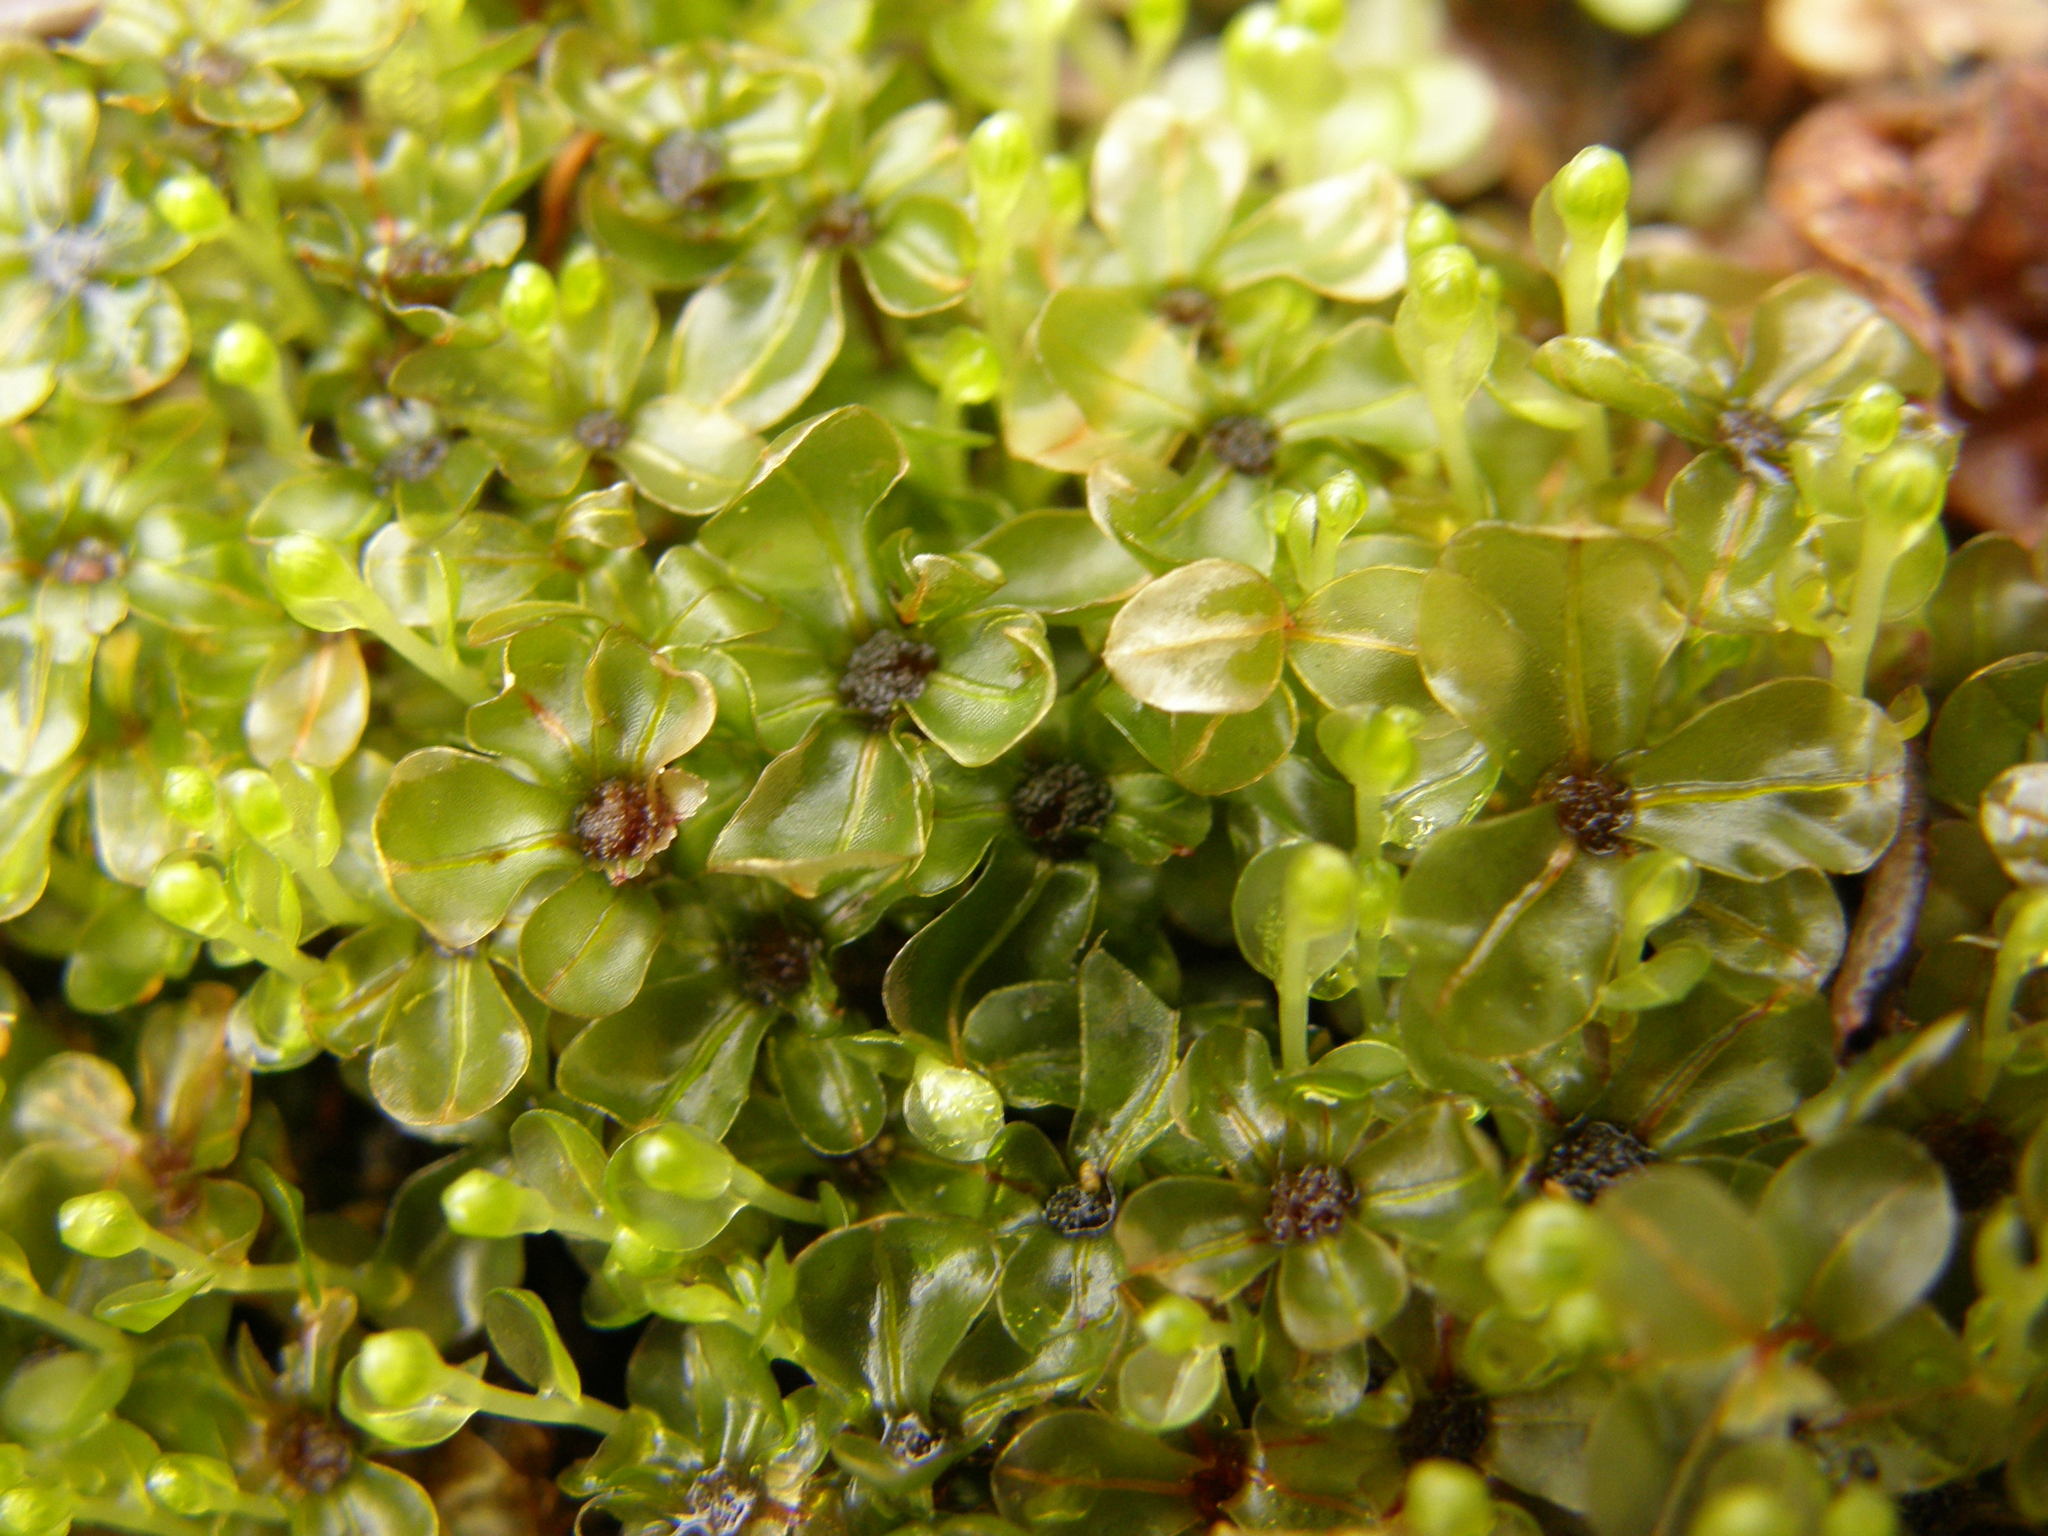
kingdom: Plantae
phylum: Bryophyta
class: Bryopsida
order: Bryales
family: Mniaceae
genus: Rhizomnium
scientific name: Rhizomnium punctatum
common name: Dotted leafy moss
